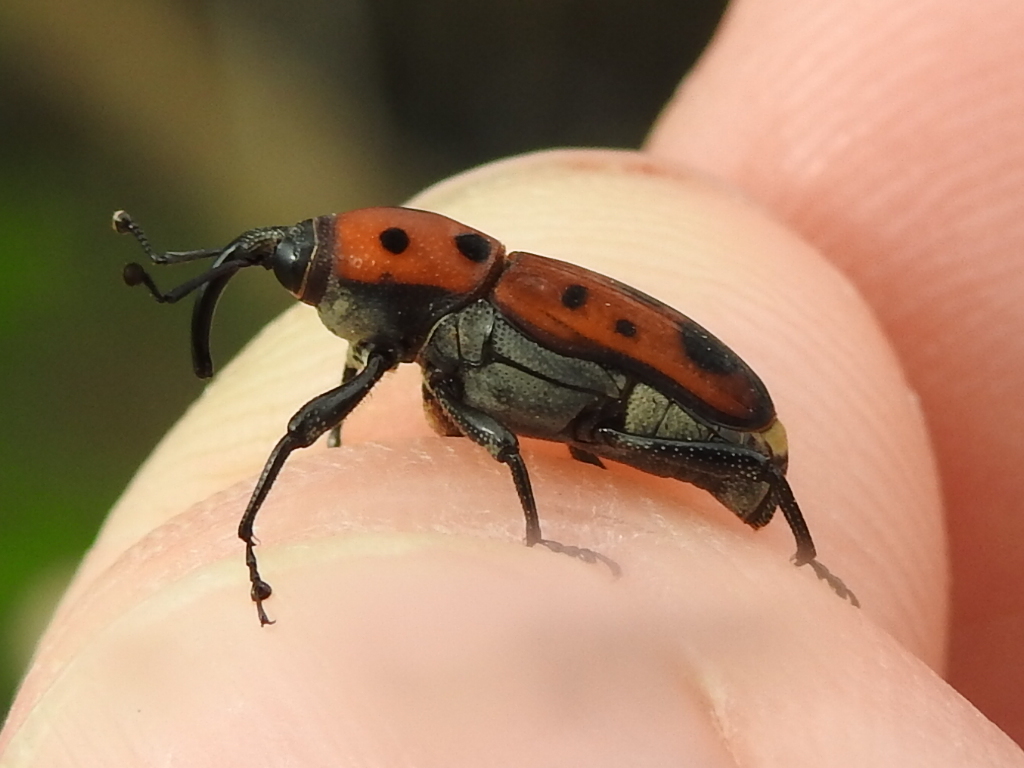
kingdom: Animalia
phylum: Arthropoda
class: Insecta
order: Coleoptera
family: Dryophthoridae
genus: Rhodobaenus
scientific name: Rhodobaenus quinquepunctatus
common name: Cocklebur weevil
